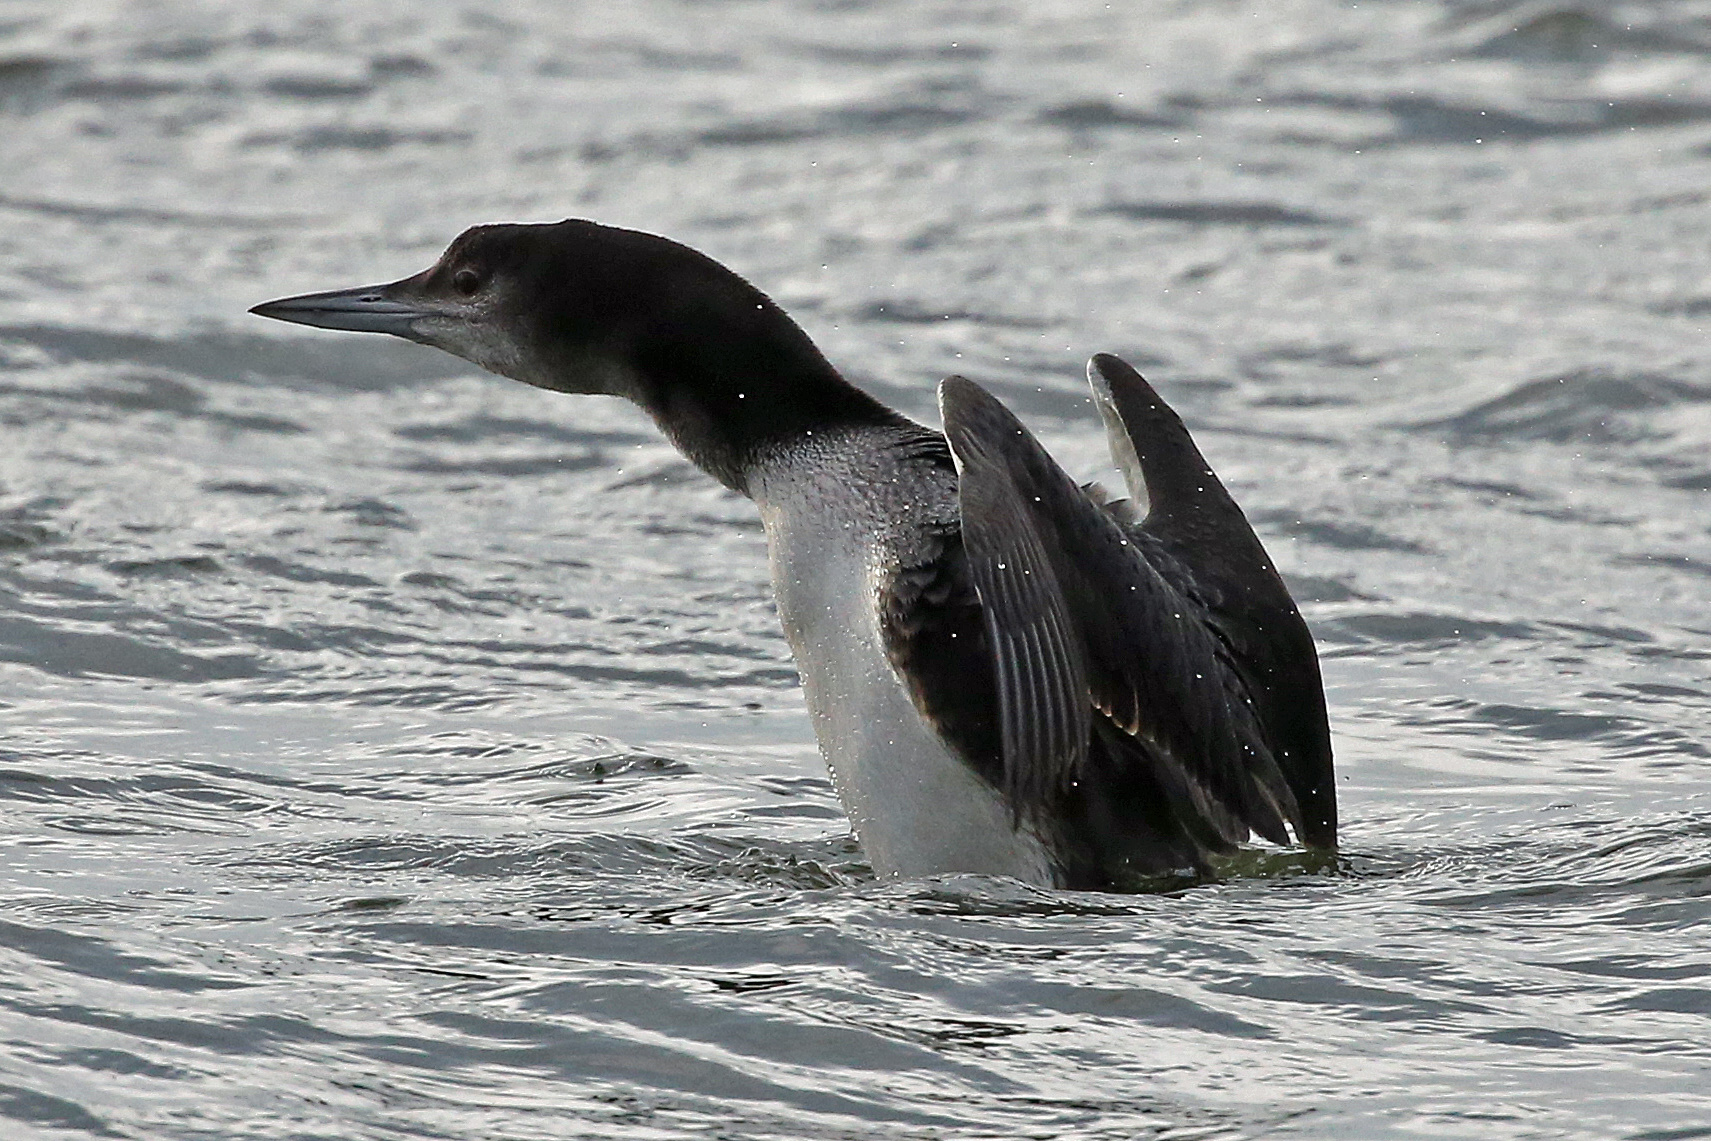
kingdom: Animalia
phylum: Chordata
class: Aves
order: Gaviiformes
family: Gaviidae
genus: Gavia
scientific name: Gavia immer
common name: Common loon
